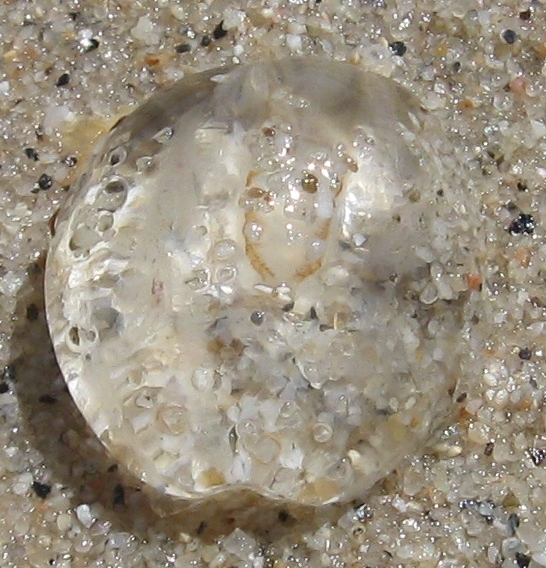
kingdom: Animalia
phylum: Ctenophora
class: Tentaculata
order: Cydippida
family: Pleurobrachiidae
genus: Pleurobrachia
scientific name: Pleurobrachia pileus
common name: Sea gooseberry
